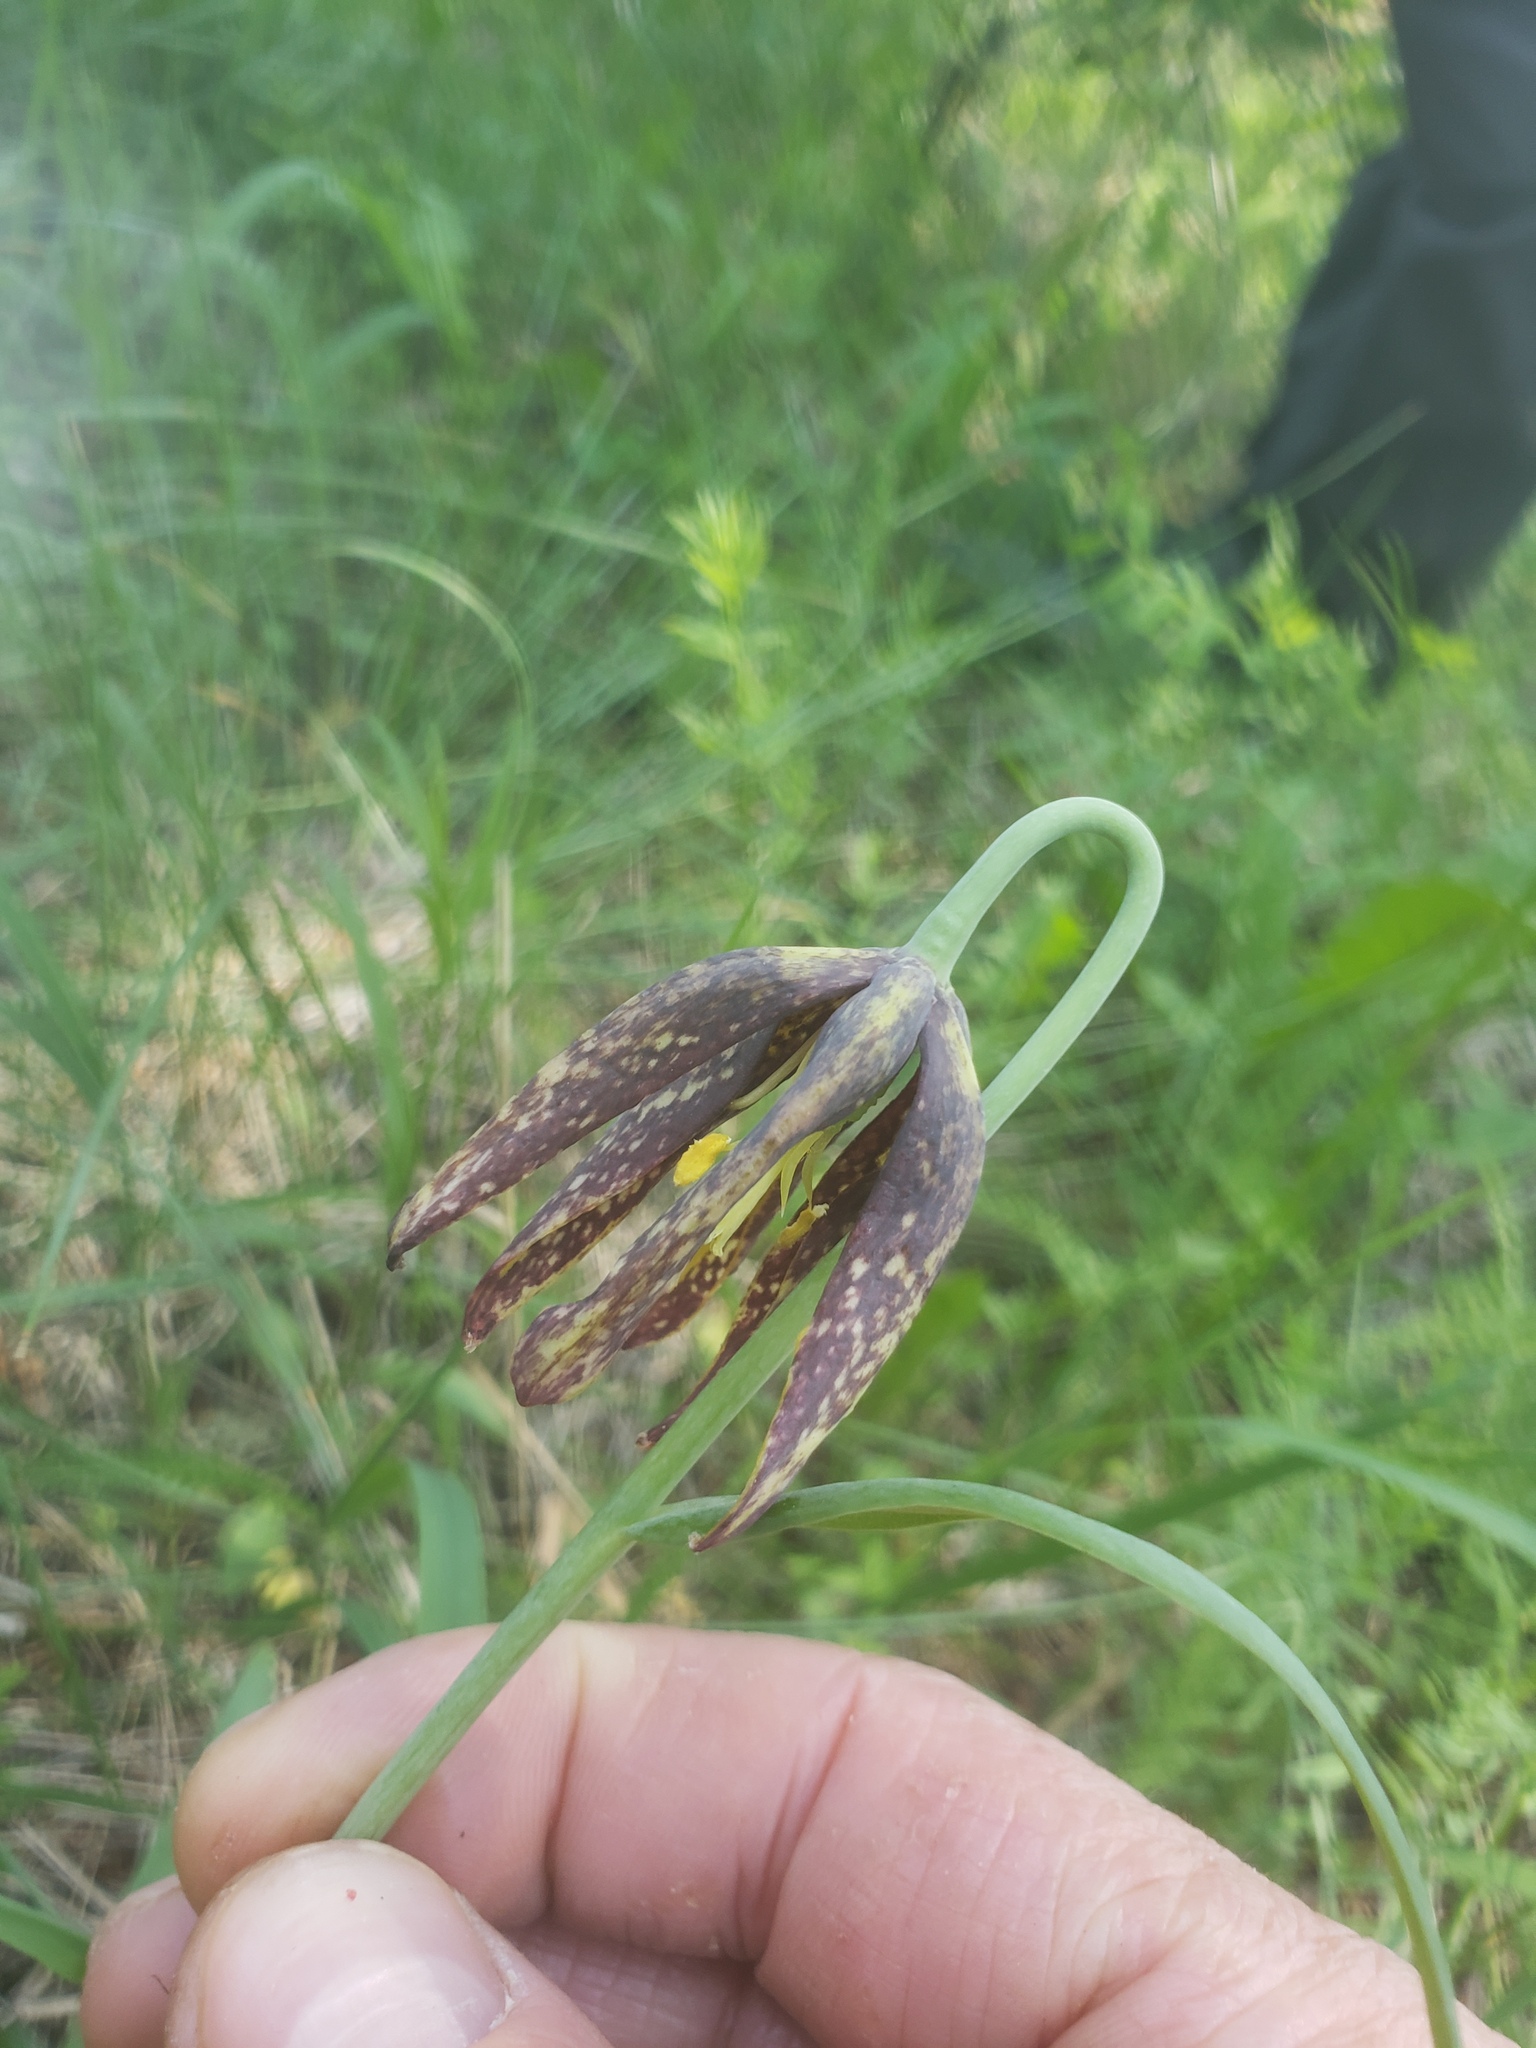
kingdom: Plantae
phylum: Tracheophyta
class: Liliopsida
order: Liliales
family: Liliaceae
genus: Fritillaria
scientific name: Fritillaria affinis
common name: Ojai fritillary
